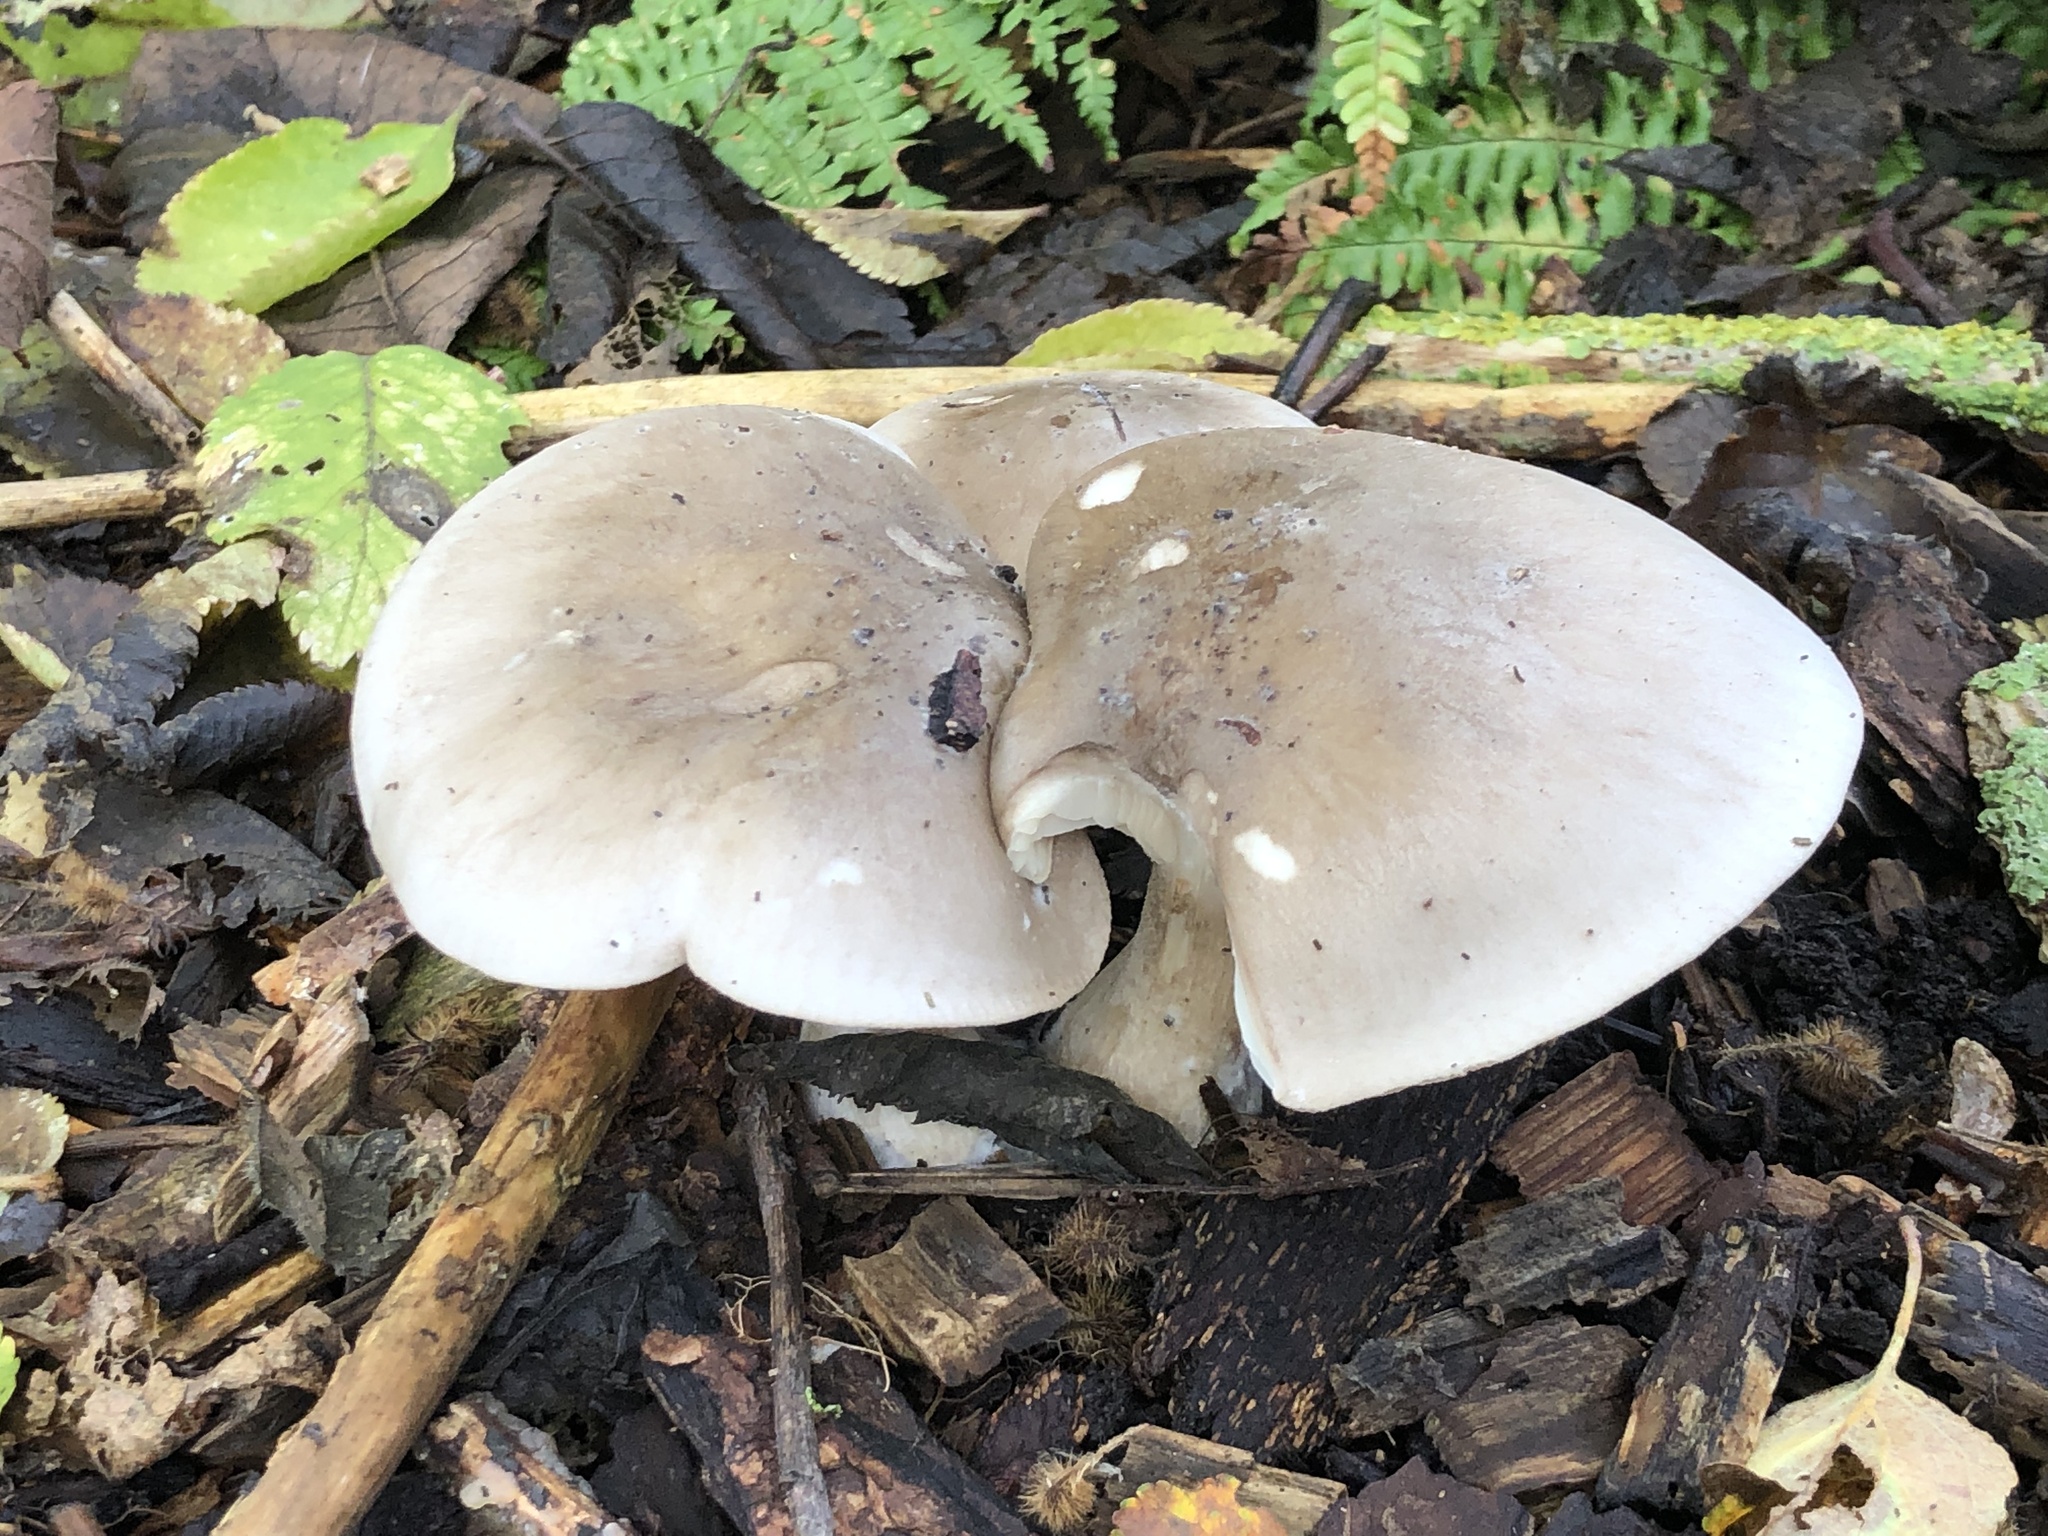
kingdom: Fungi
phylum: Basidiomycota
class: Agaricomycetes
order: Agaricales
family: Tricholomataceae
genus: Clitocybe
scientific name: Clitocybe nebularis
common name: Clouded agaric
